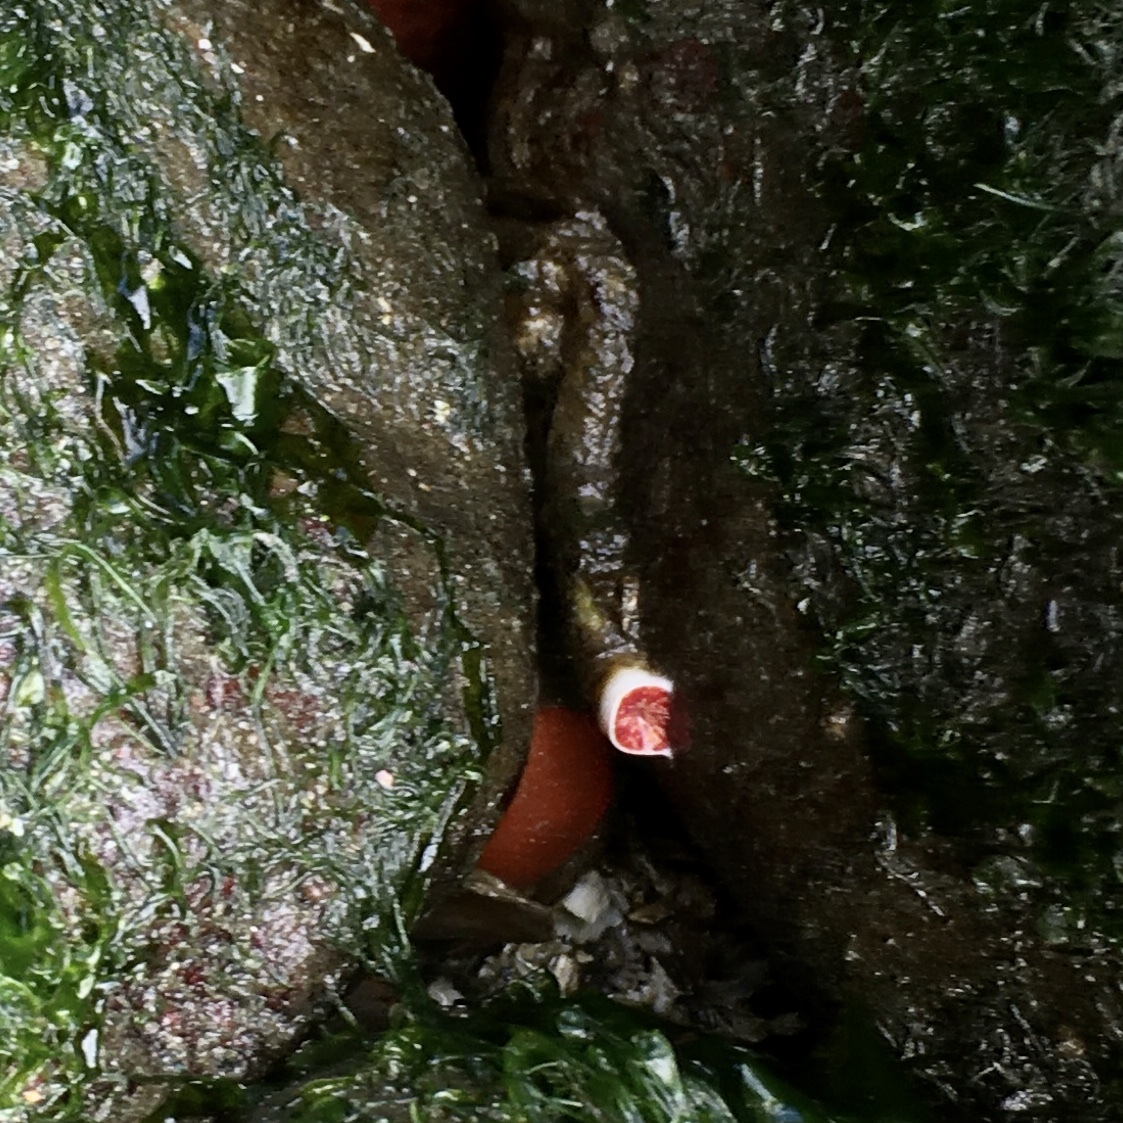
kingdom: Animalia
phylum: Annelida
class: Polychaeta
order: Sabellida
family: Serpulidae
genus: Serpula
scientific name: Serpula columbiana
